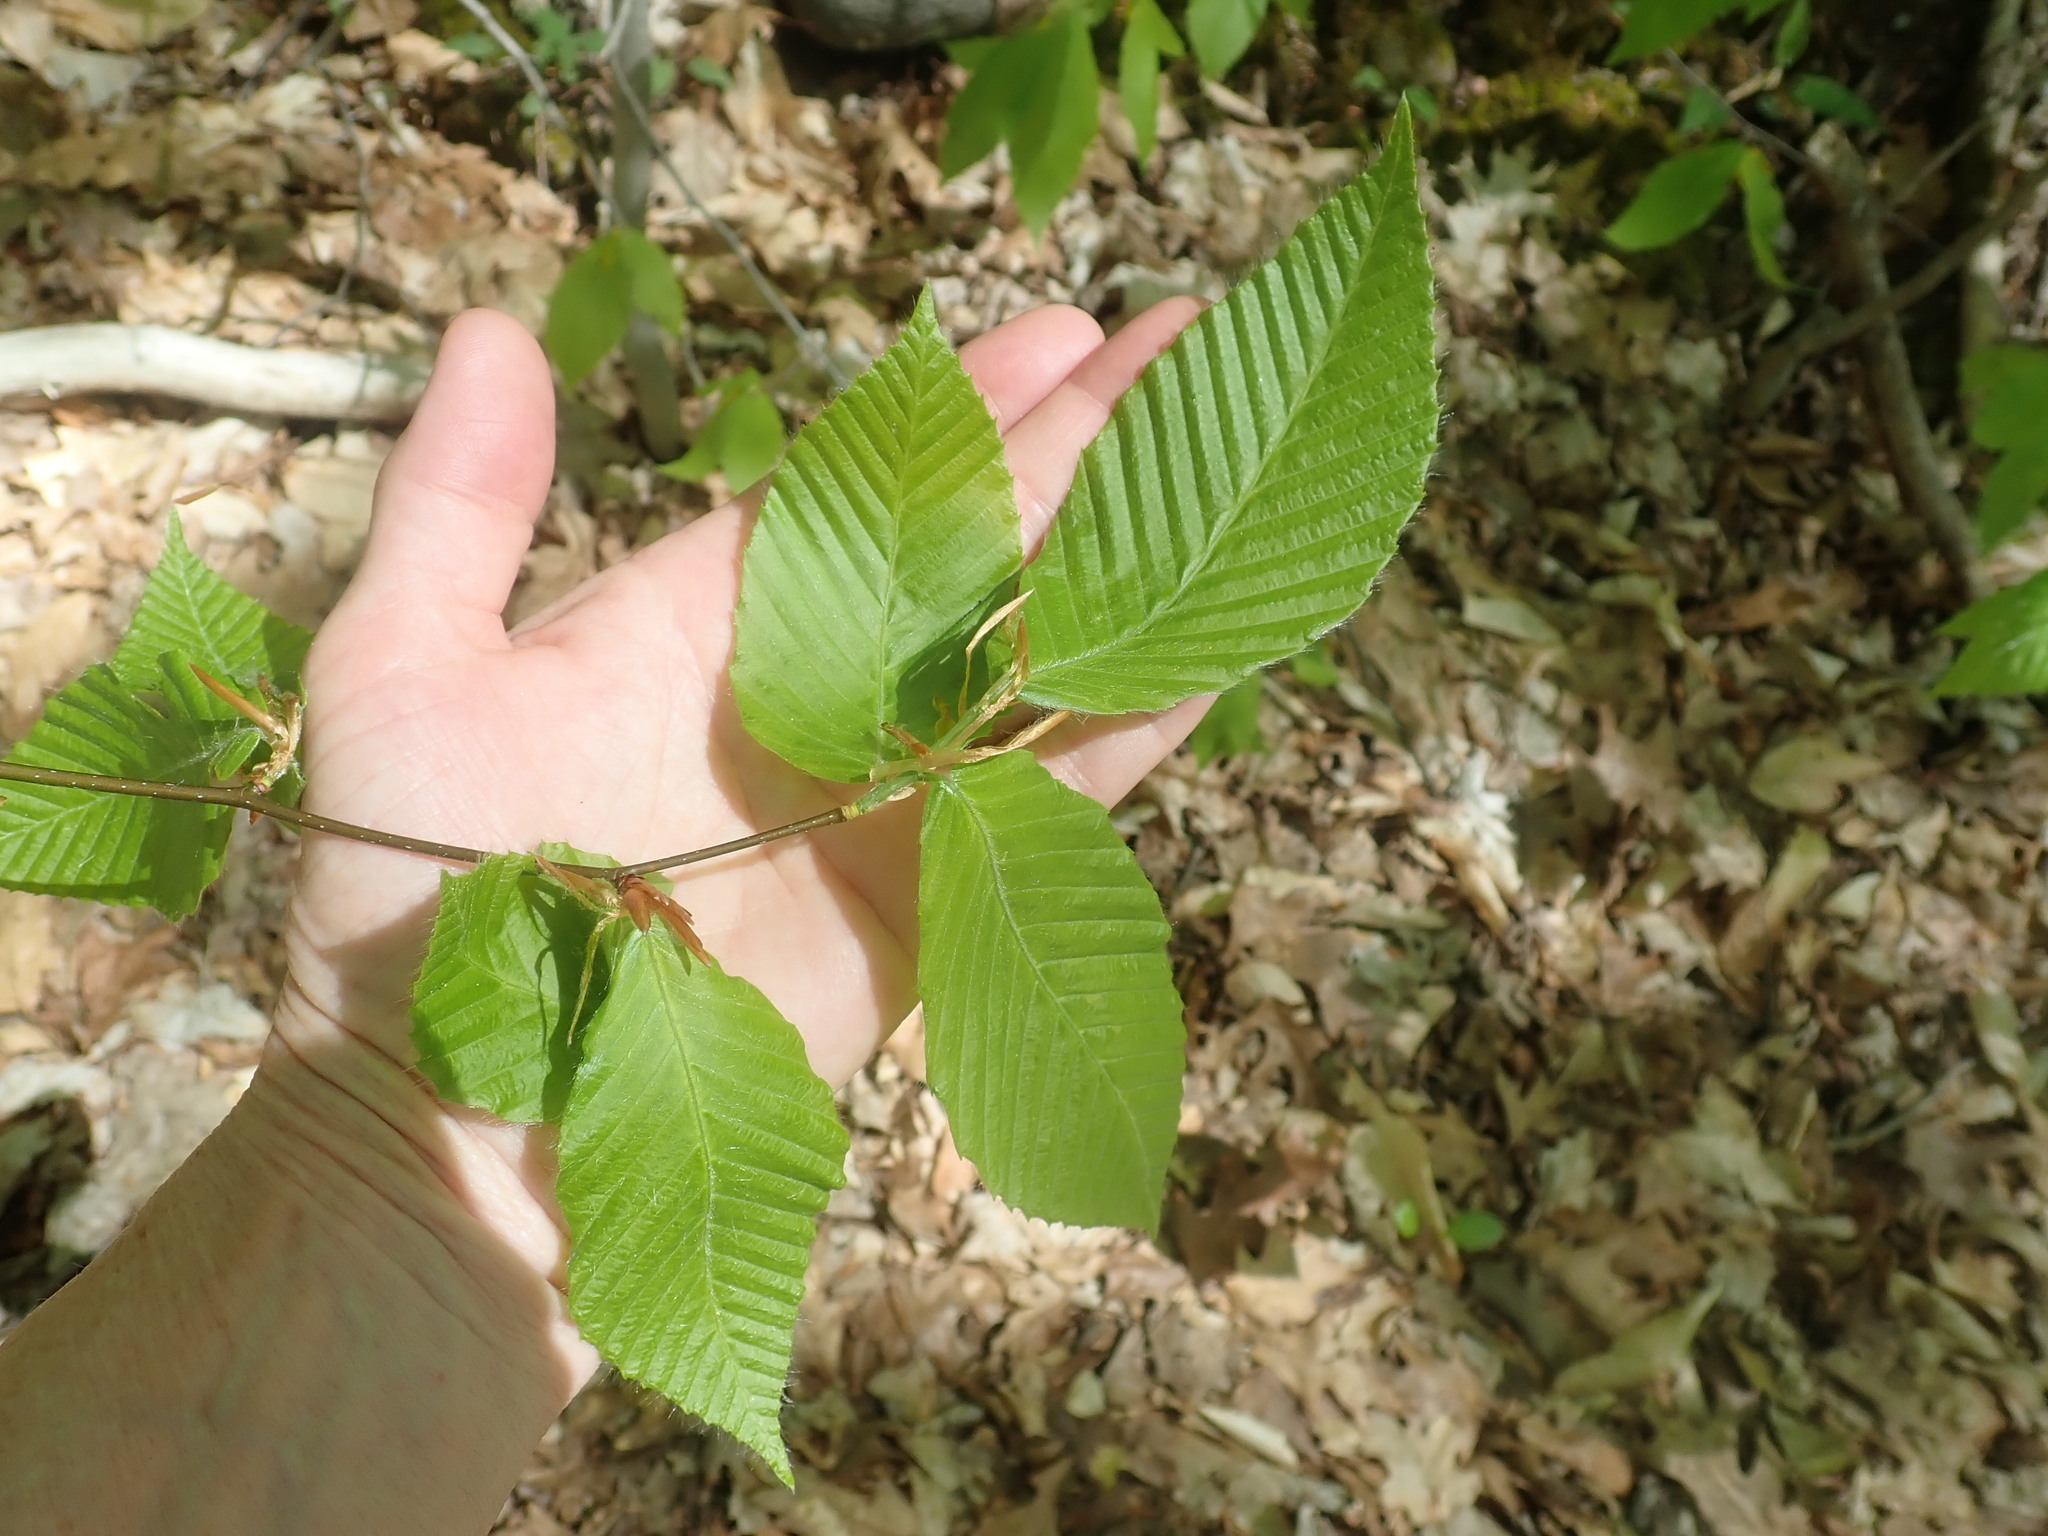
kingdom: Plantae
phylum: Tracheophyta
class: Magnoliopsida
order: Fagales
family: Fagaceae
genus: Fagus
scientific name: Fagus grandifolia
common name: American beech
